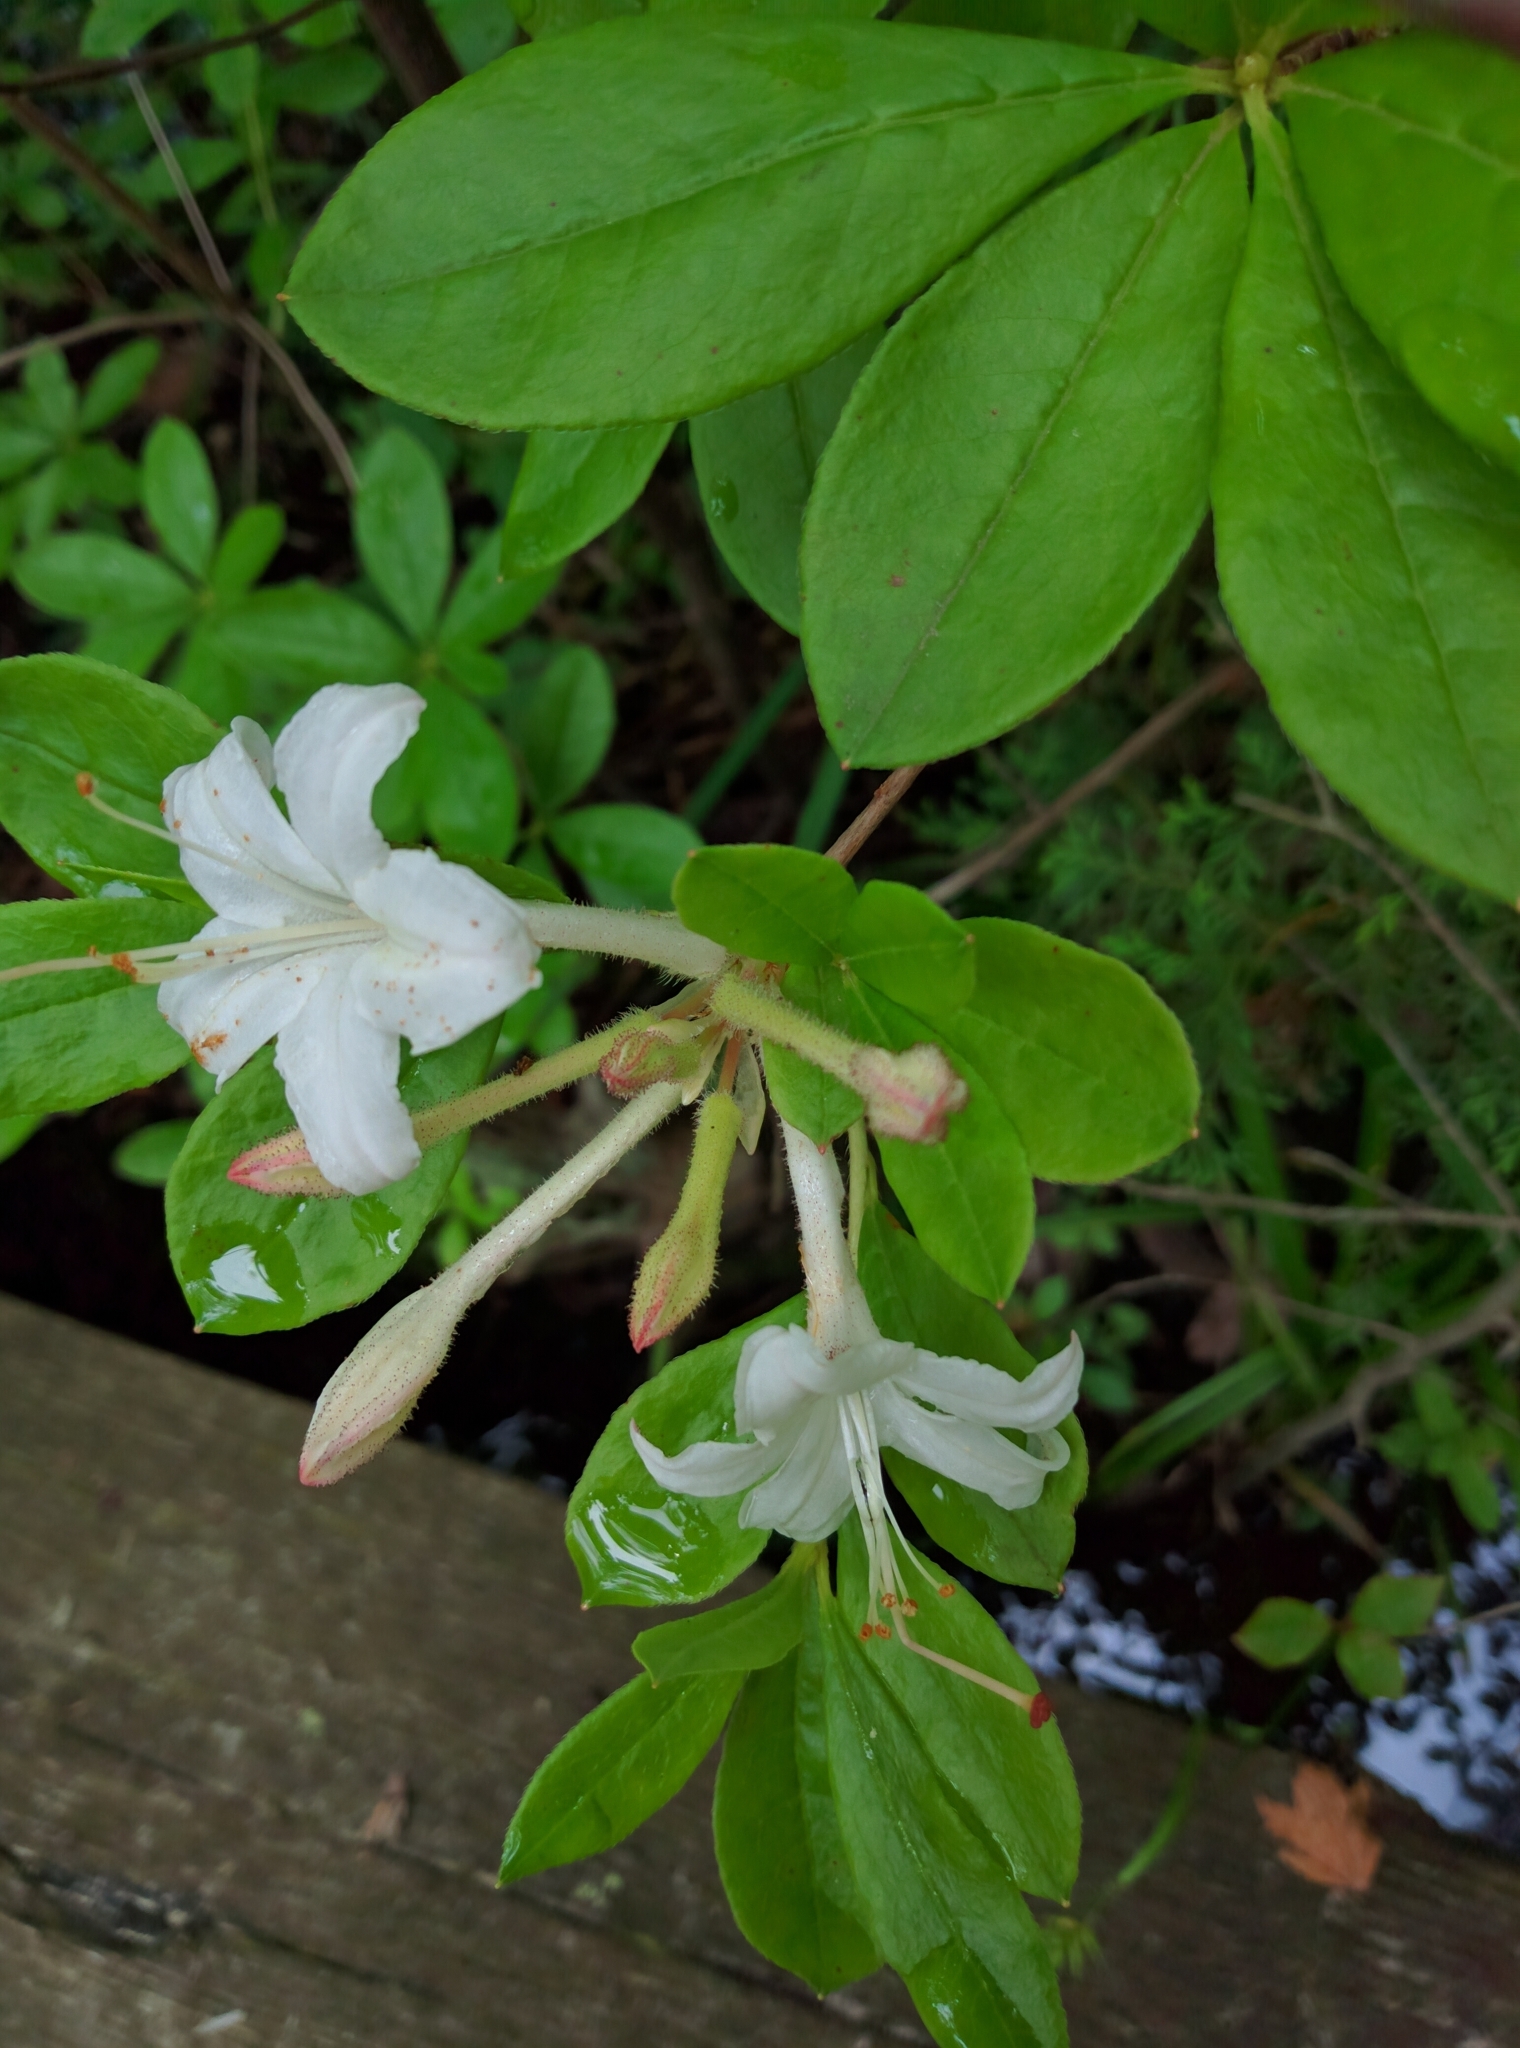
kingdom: Plantae
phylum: Tracheophyta
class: Magnoliopsida
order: Ericales
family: Ericaceae
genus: Rhododendron
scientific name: Rhododendron viscosum
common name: Clammy azalea
